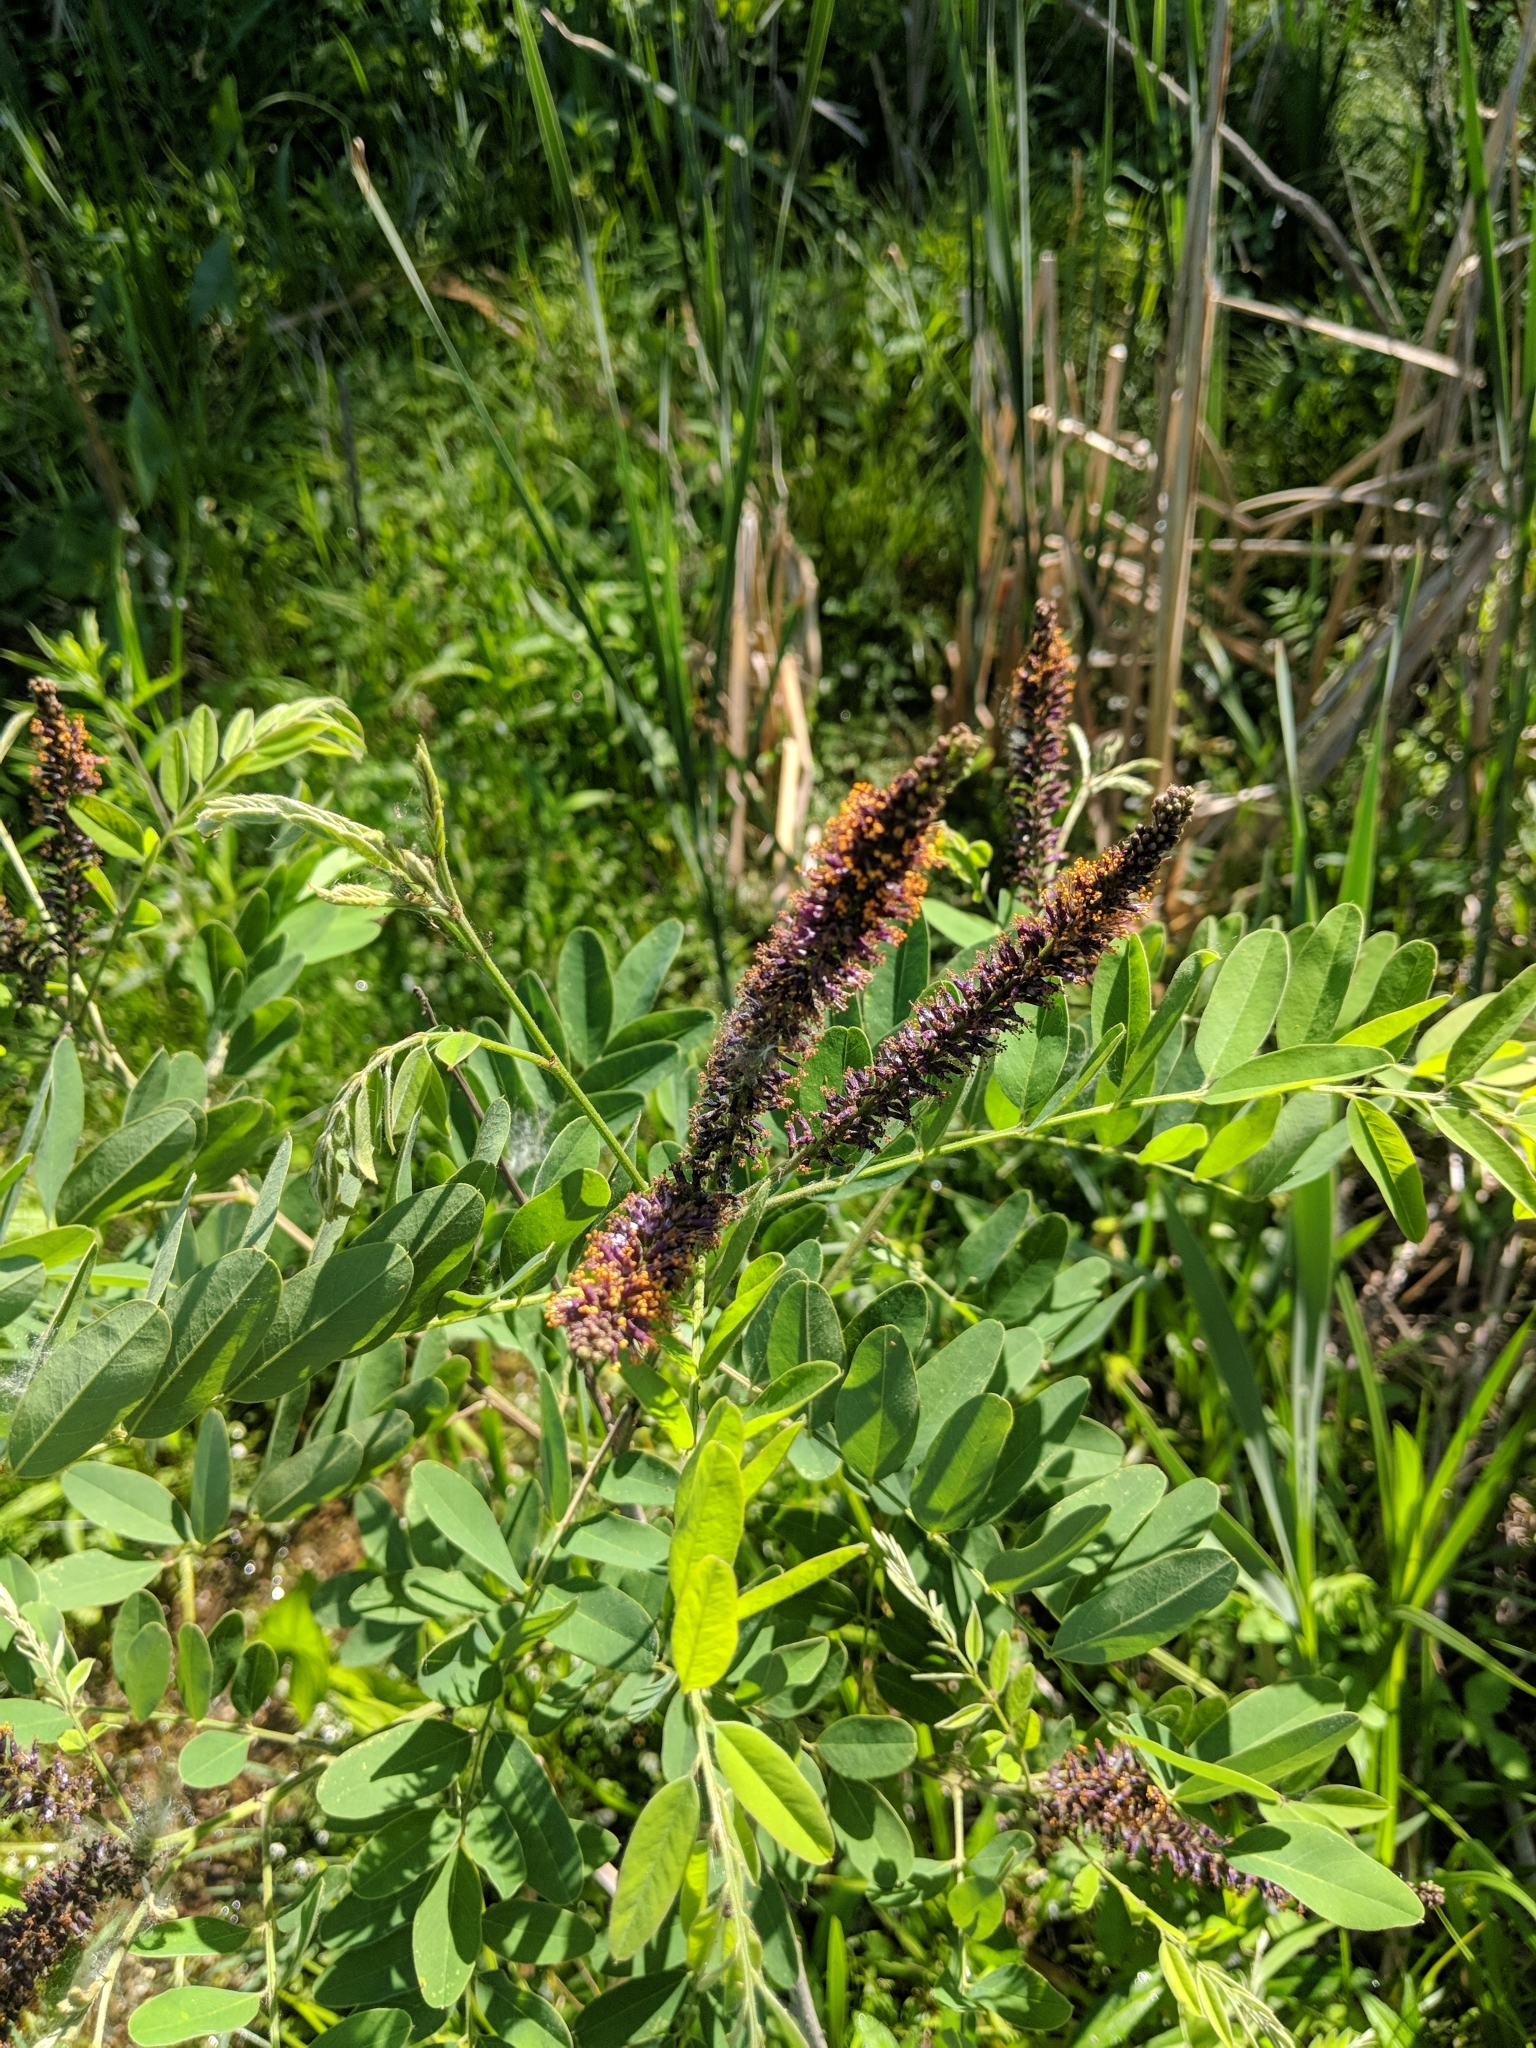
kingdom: Plantae
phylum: Tracheophyta
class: Magnoliopsida
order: Fabales
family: Fabaceae
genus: Amorpha
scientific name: Amorpha fruticosa
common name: False indigo
